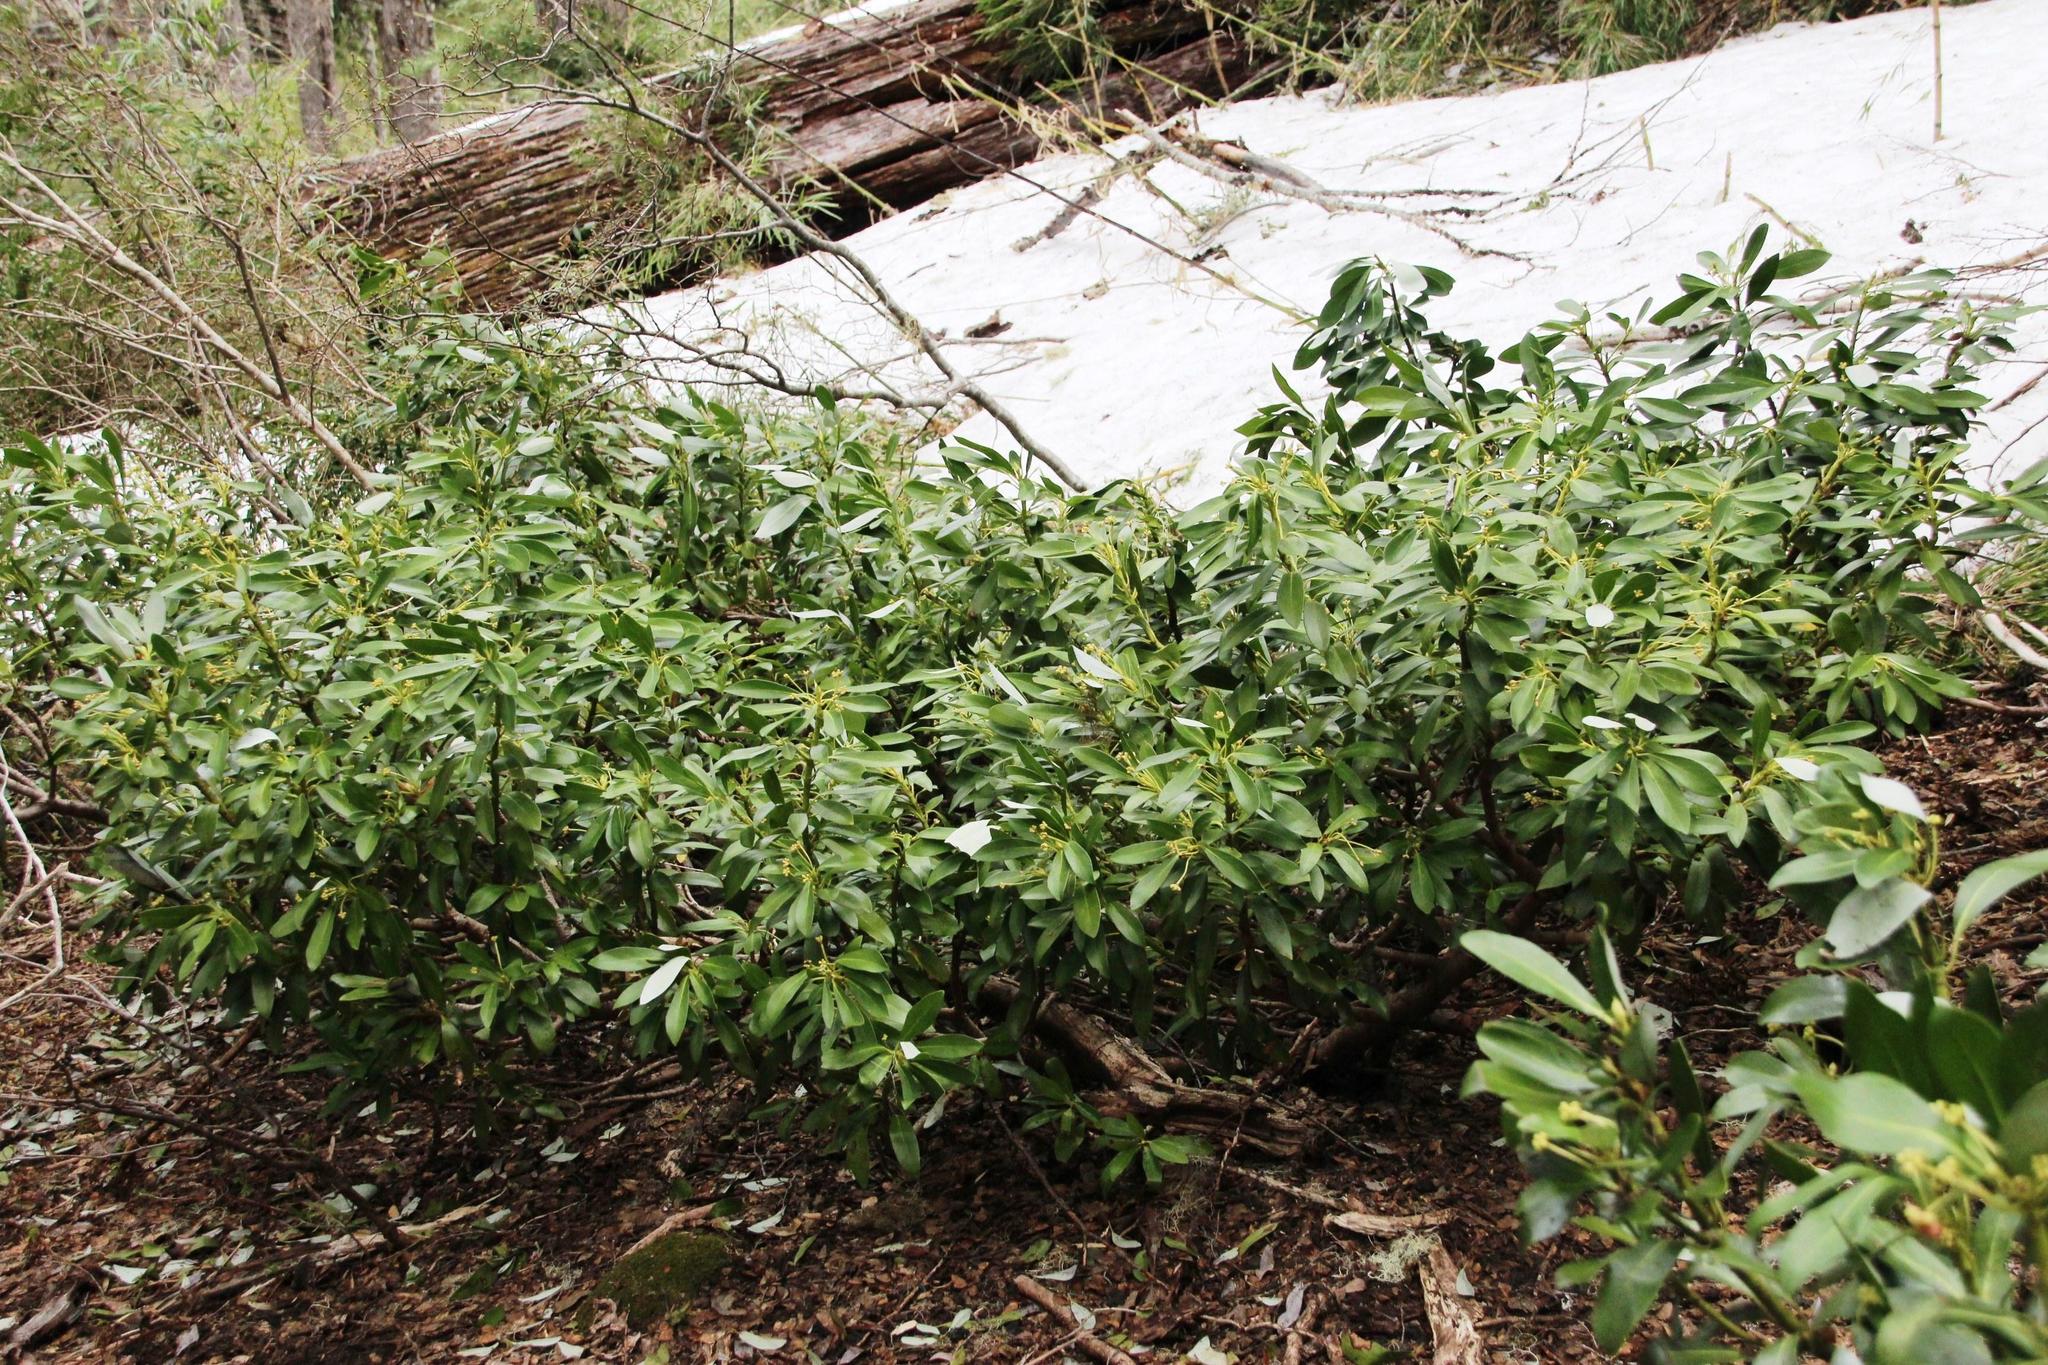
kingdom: Plantae
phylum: Tracheophyta
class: Magnoliopsida
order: Canellales
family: Winteraceae
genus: Drimys
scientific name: Drimys andina
